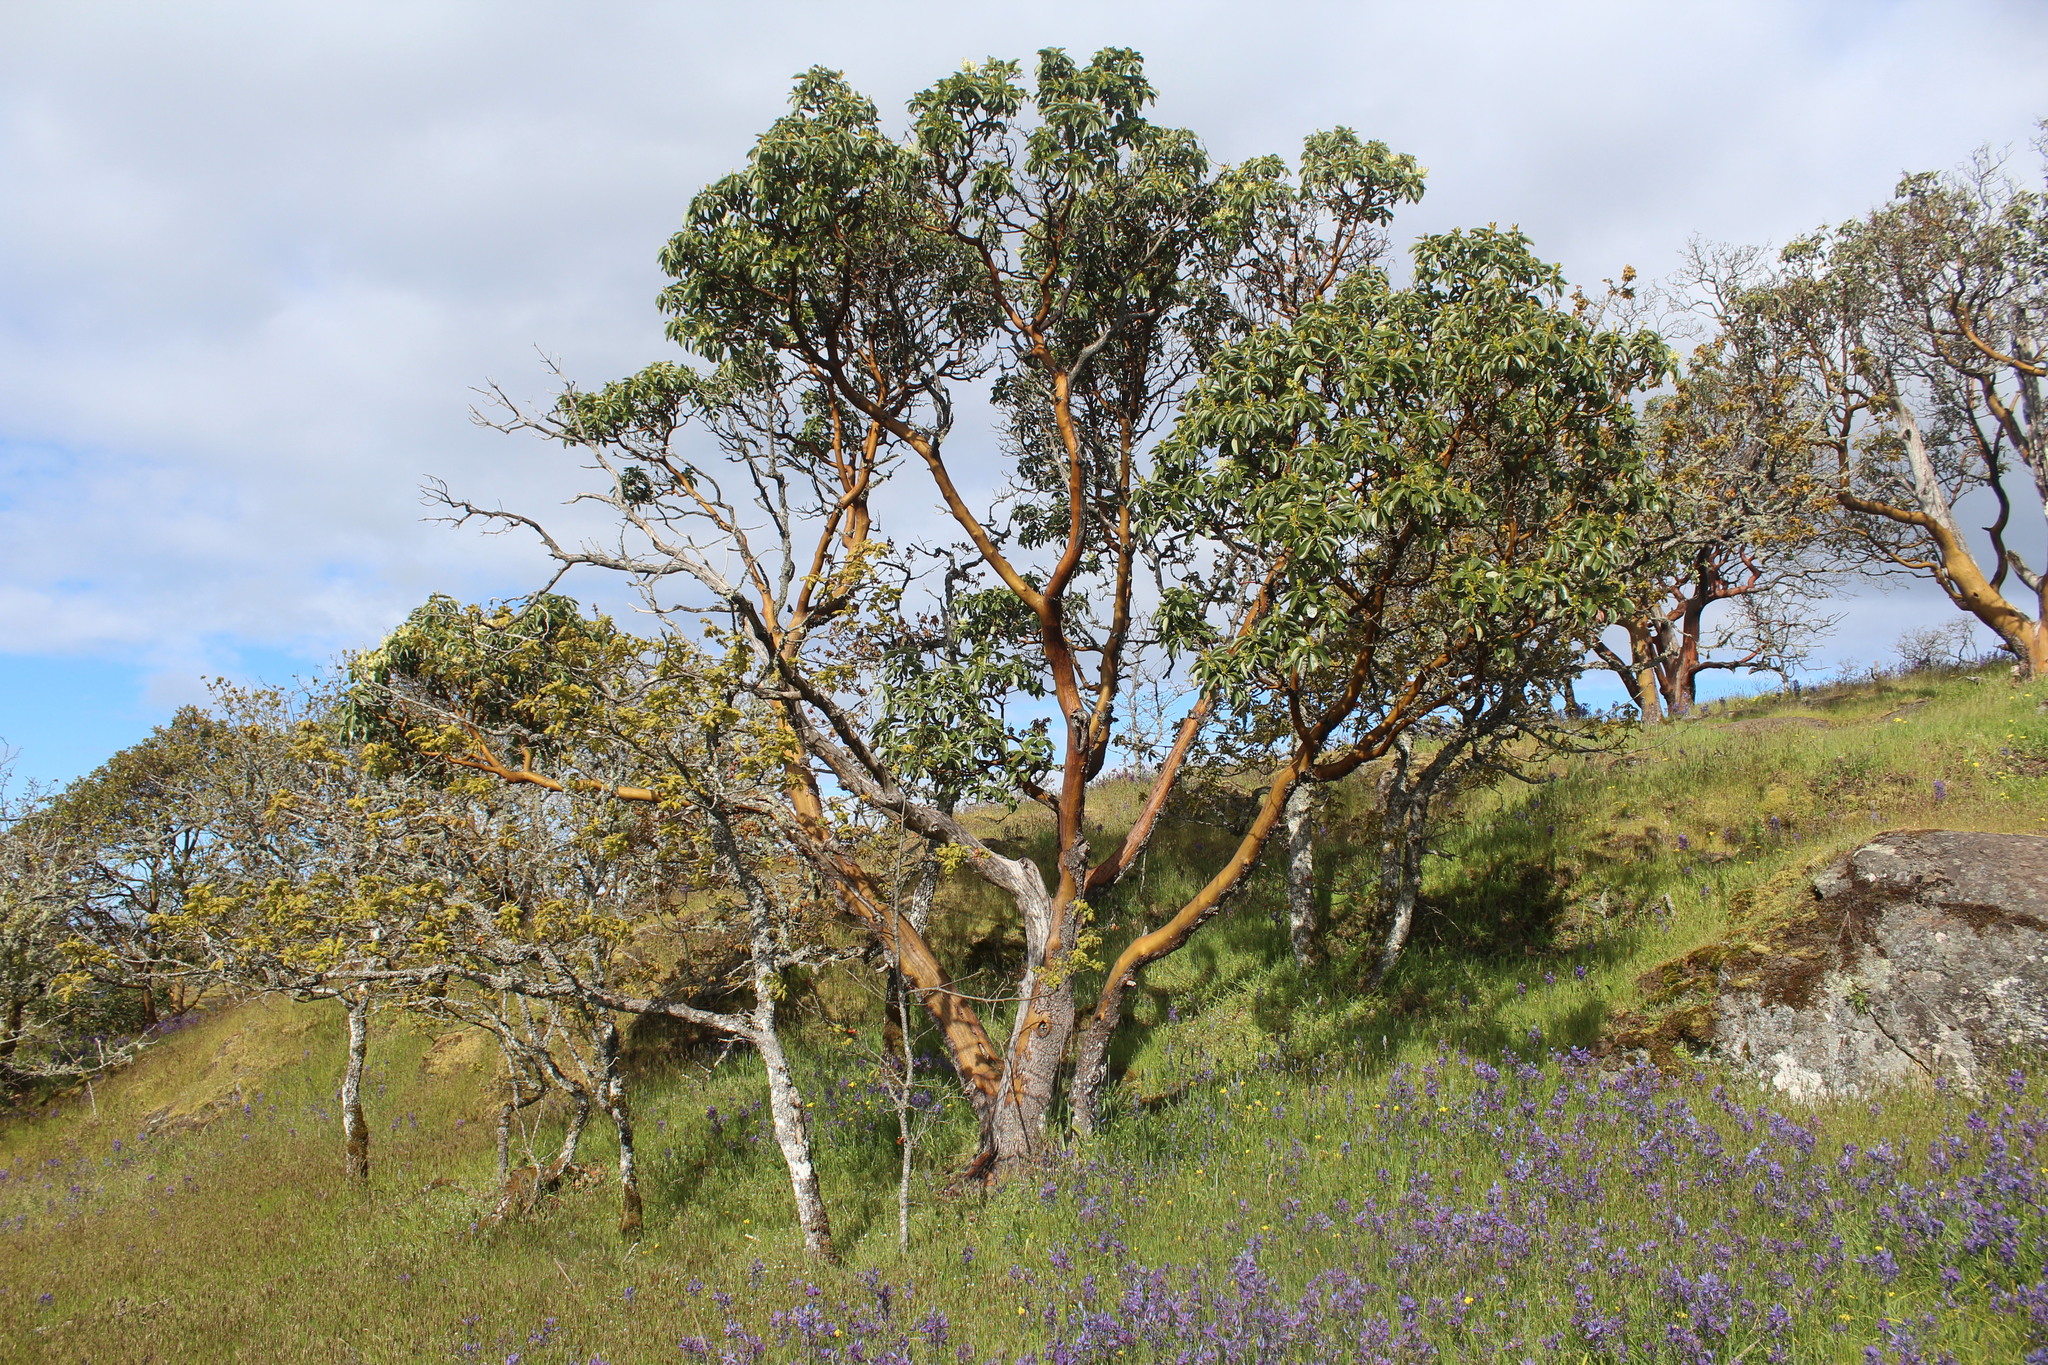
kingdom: Plantae
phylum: Tracheophyta
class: Magnoliopsida
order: Ericales
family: Ericaceae
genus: Arbutus
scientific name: Arbutus menziesii
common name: Pacific madrone
